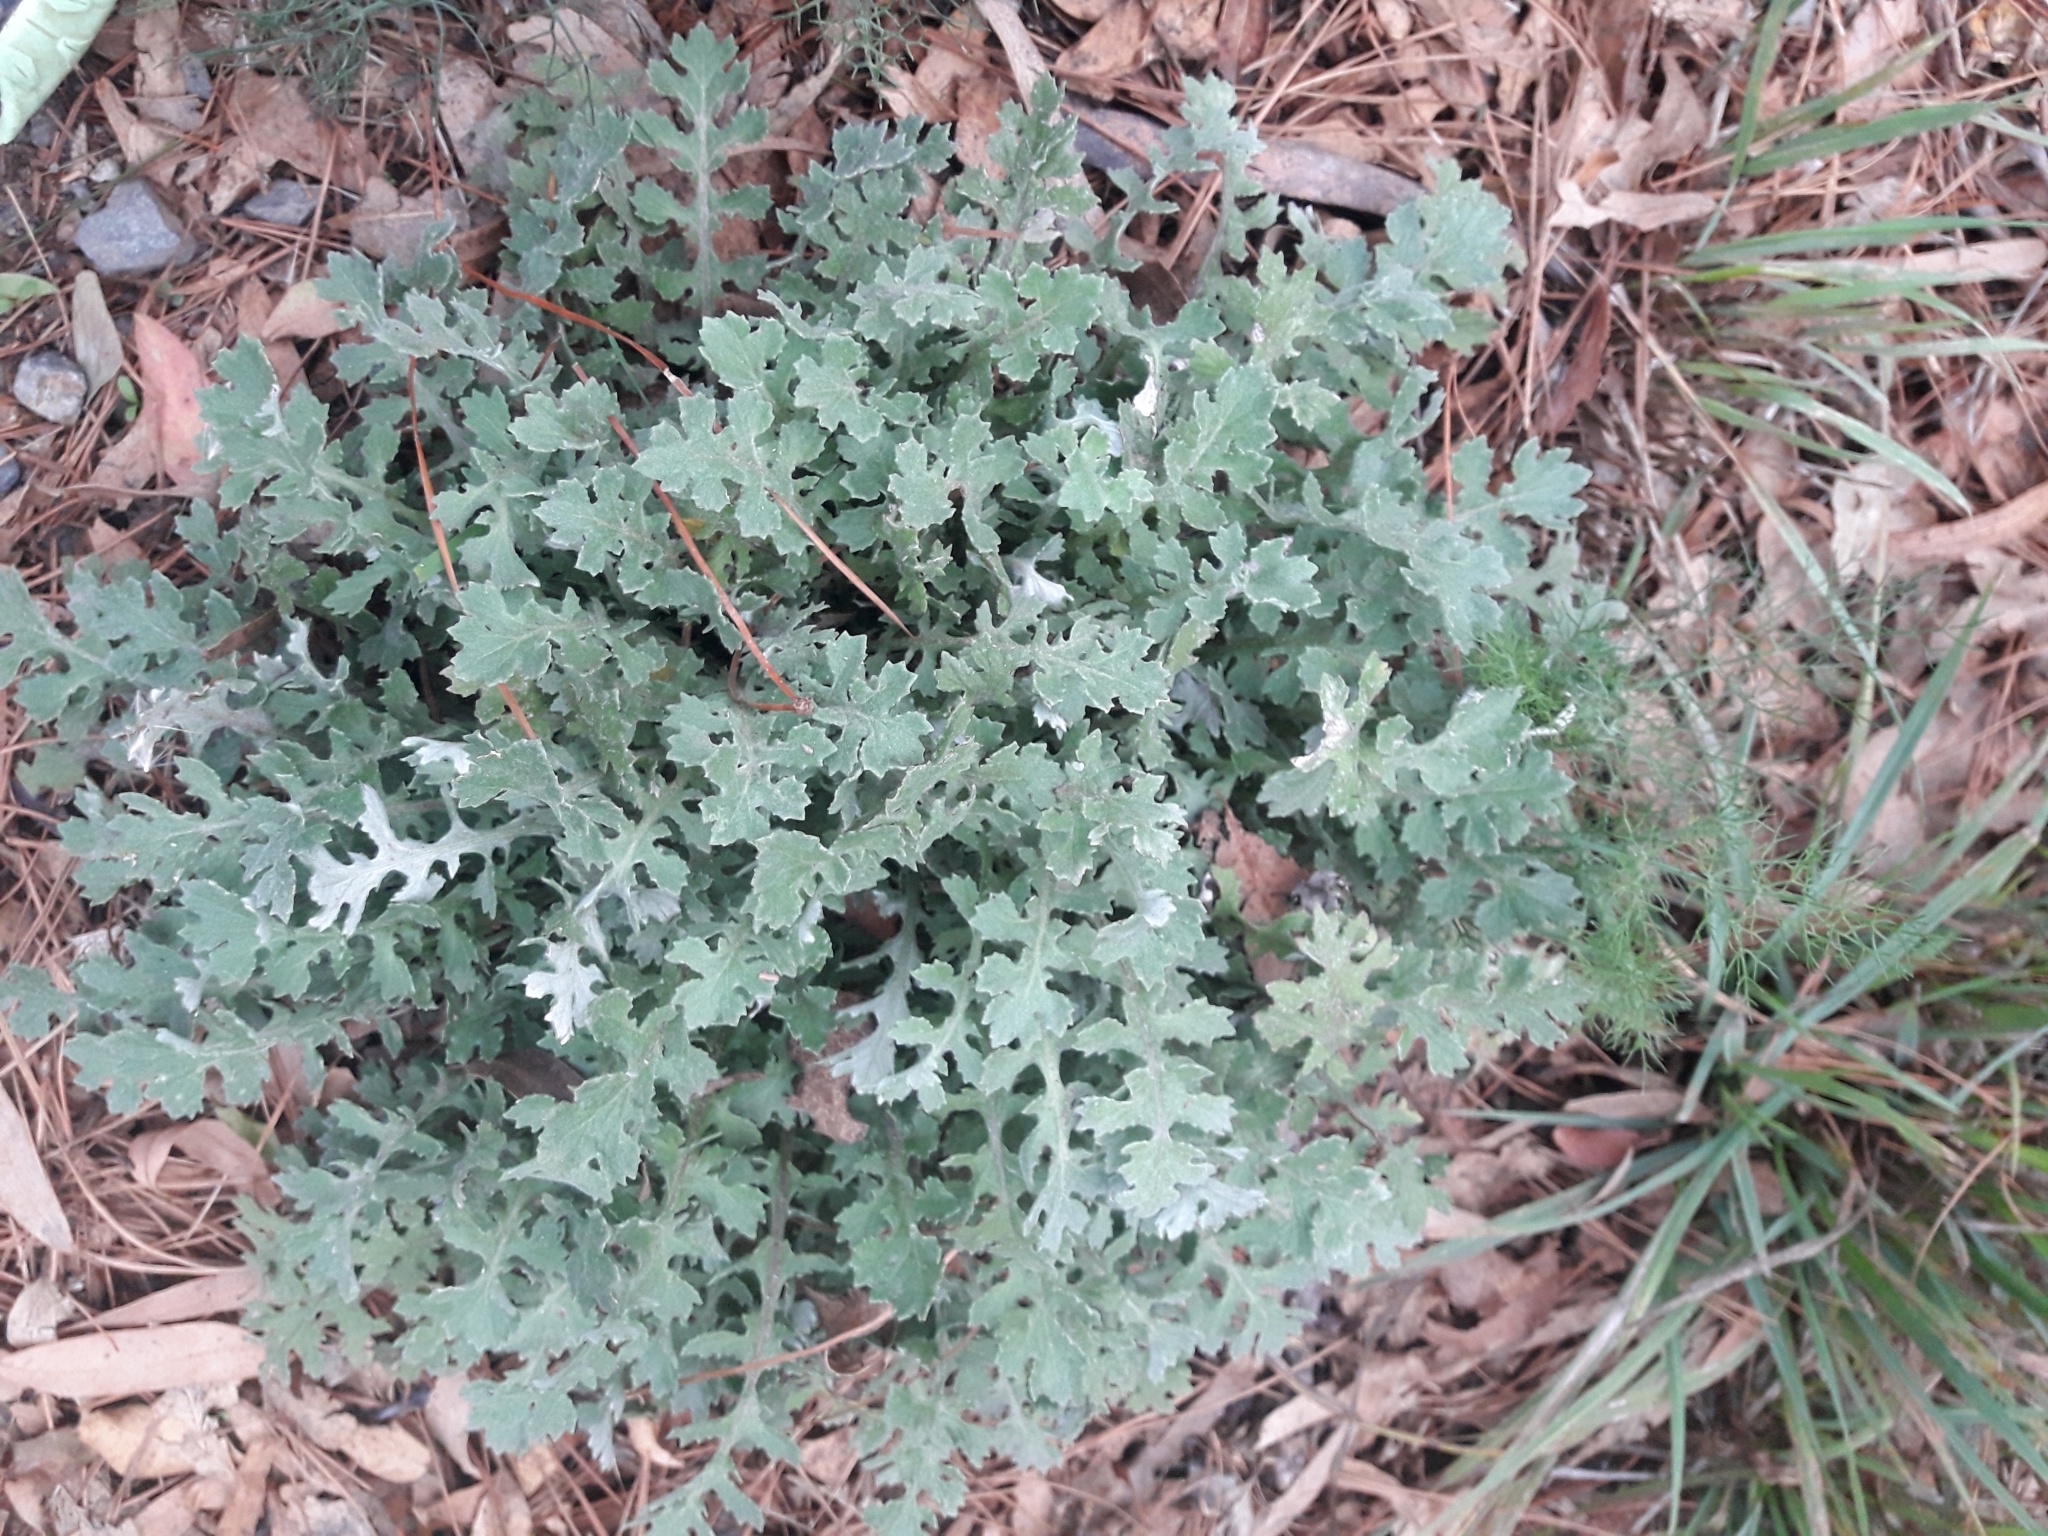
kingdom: Plantae
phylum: Tracheophyta
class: Magnoliopsida
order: Asterales
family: Asteraceae
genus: Arctotheca
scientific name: Arctotheca calendula
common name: Capeweed
